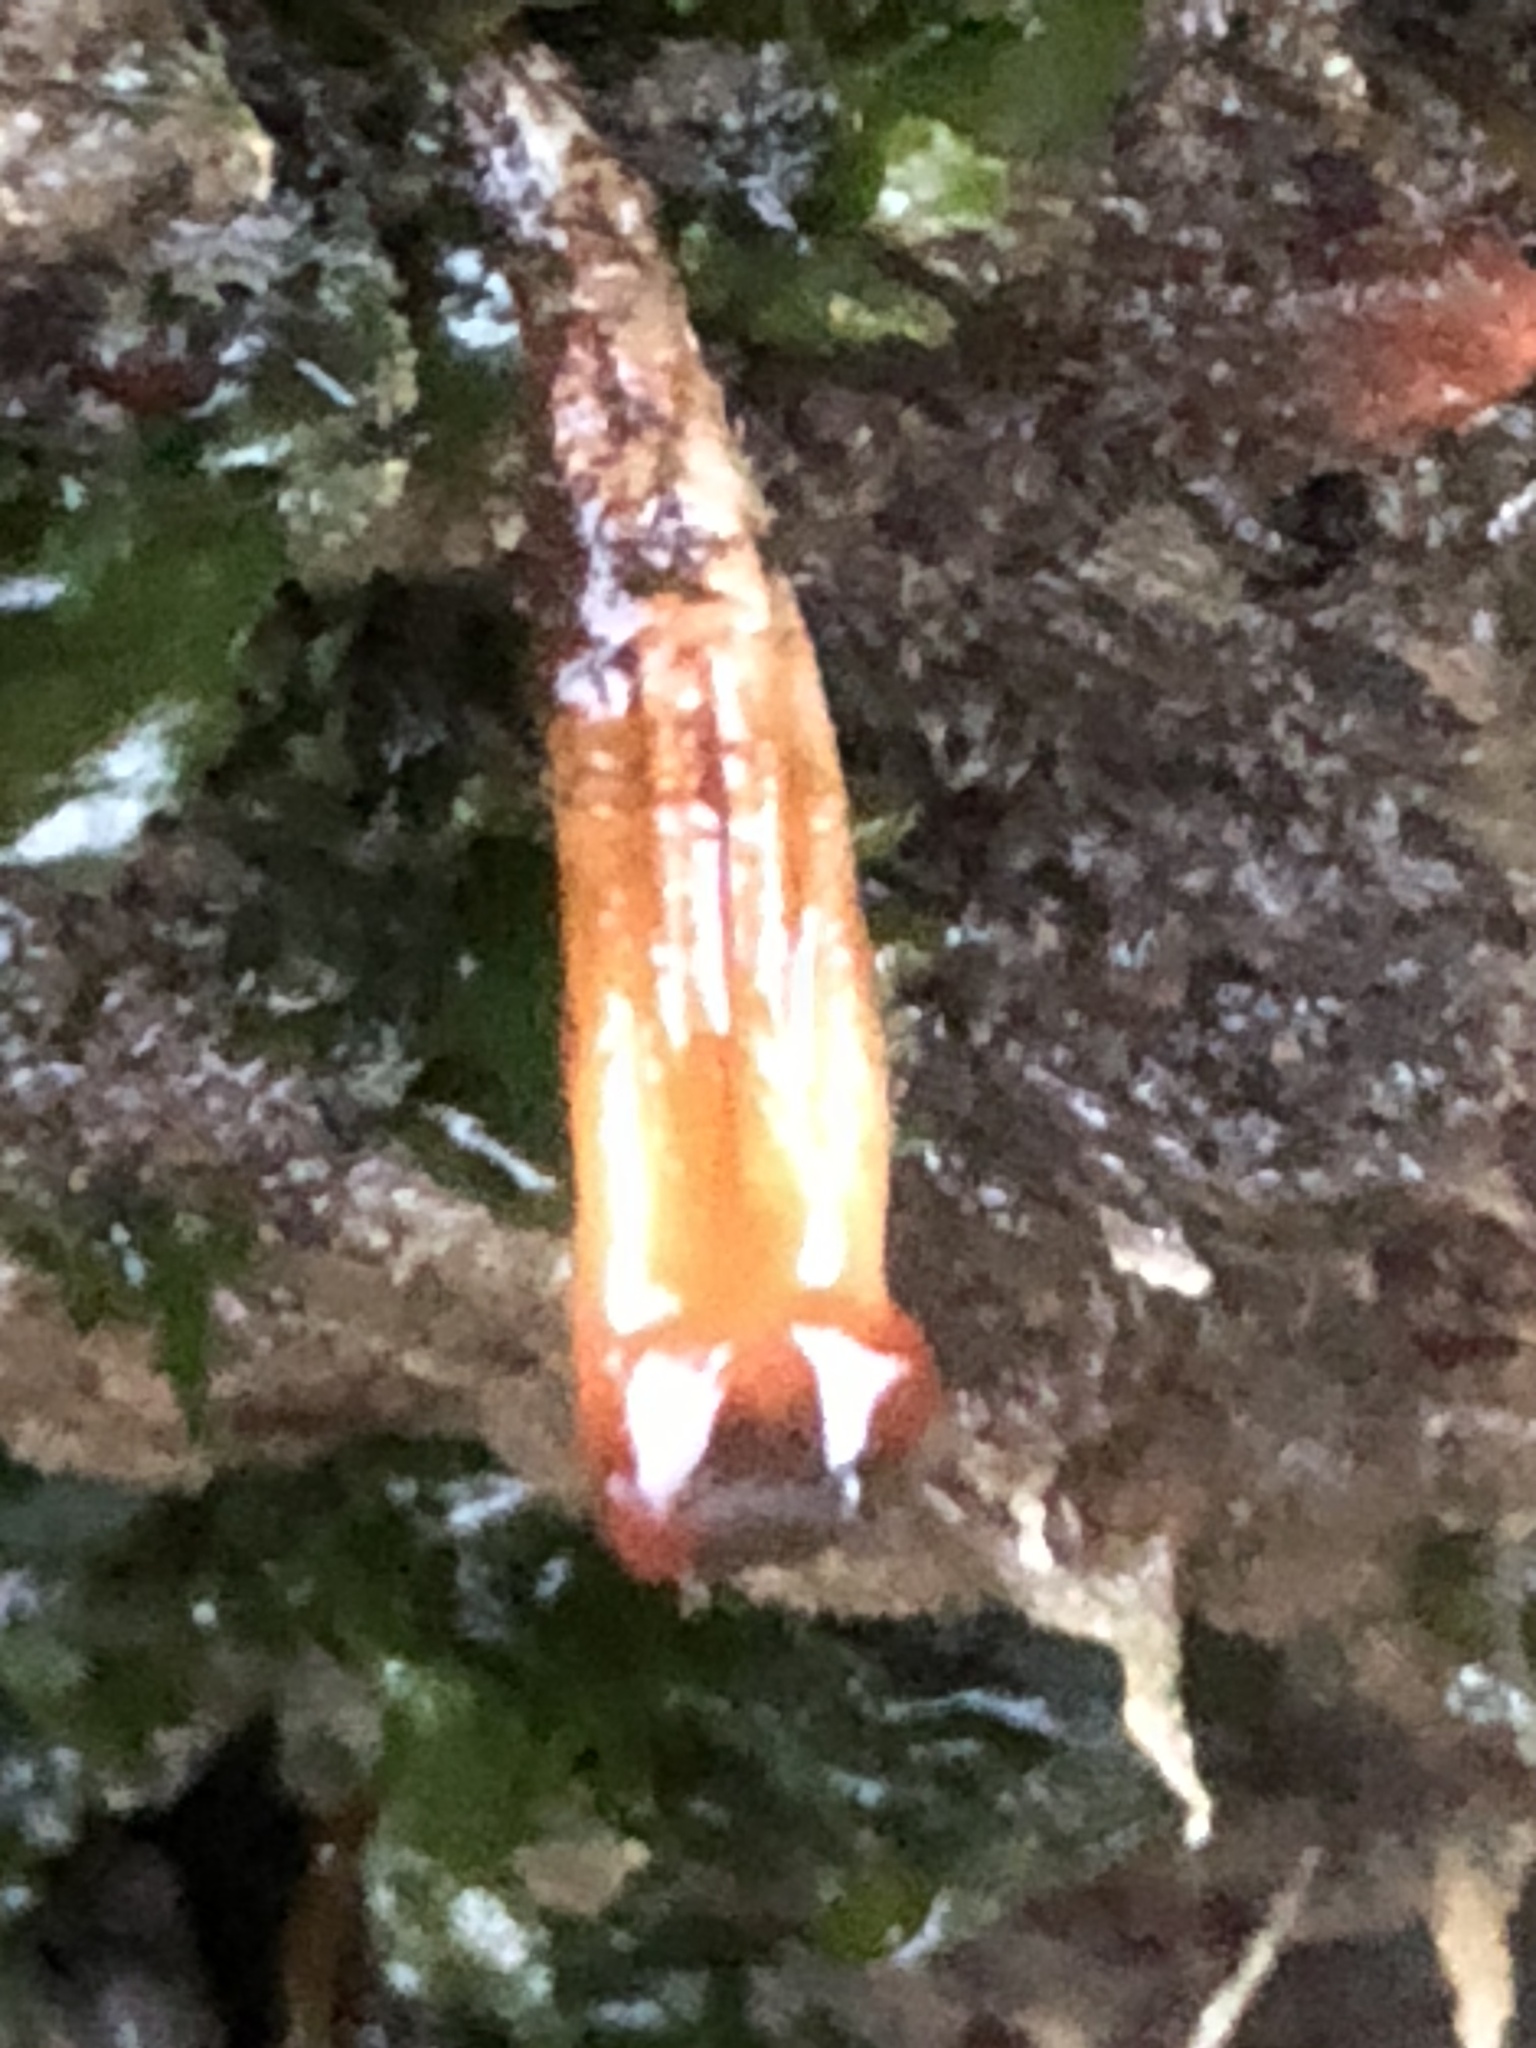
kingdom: Animalia
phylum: Chordata
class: Ascidiacea
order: Stolidobranchia
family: Styelidae
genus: Styela
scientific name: Styela montereyensis
